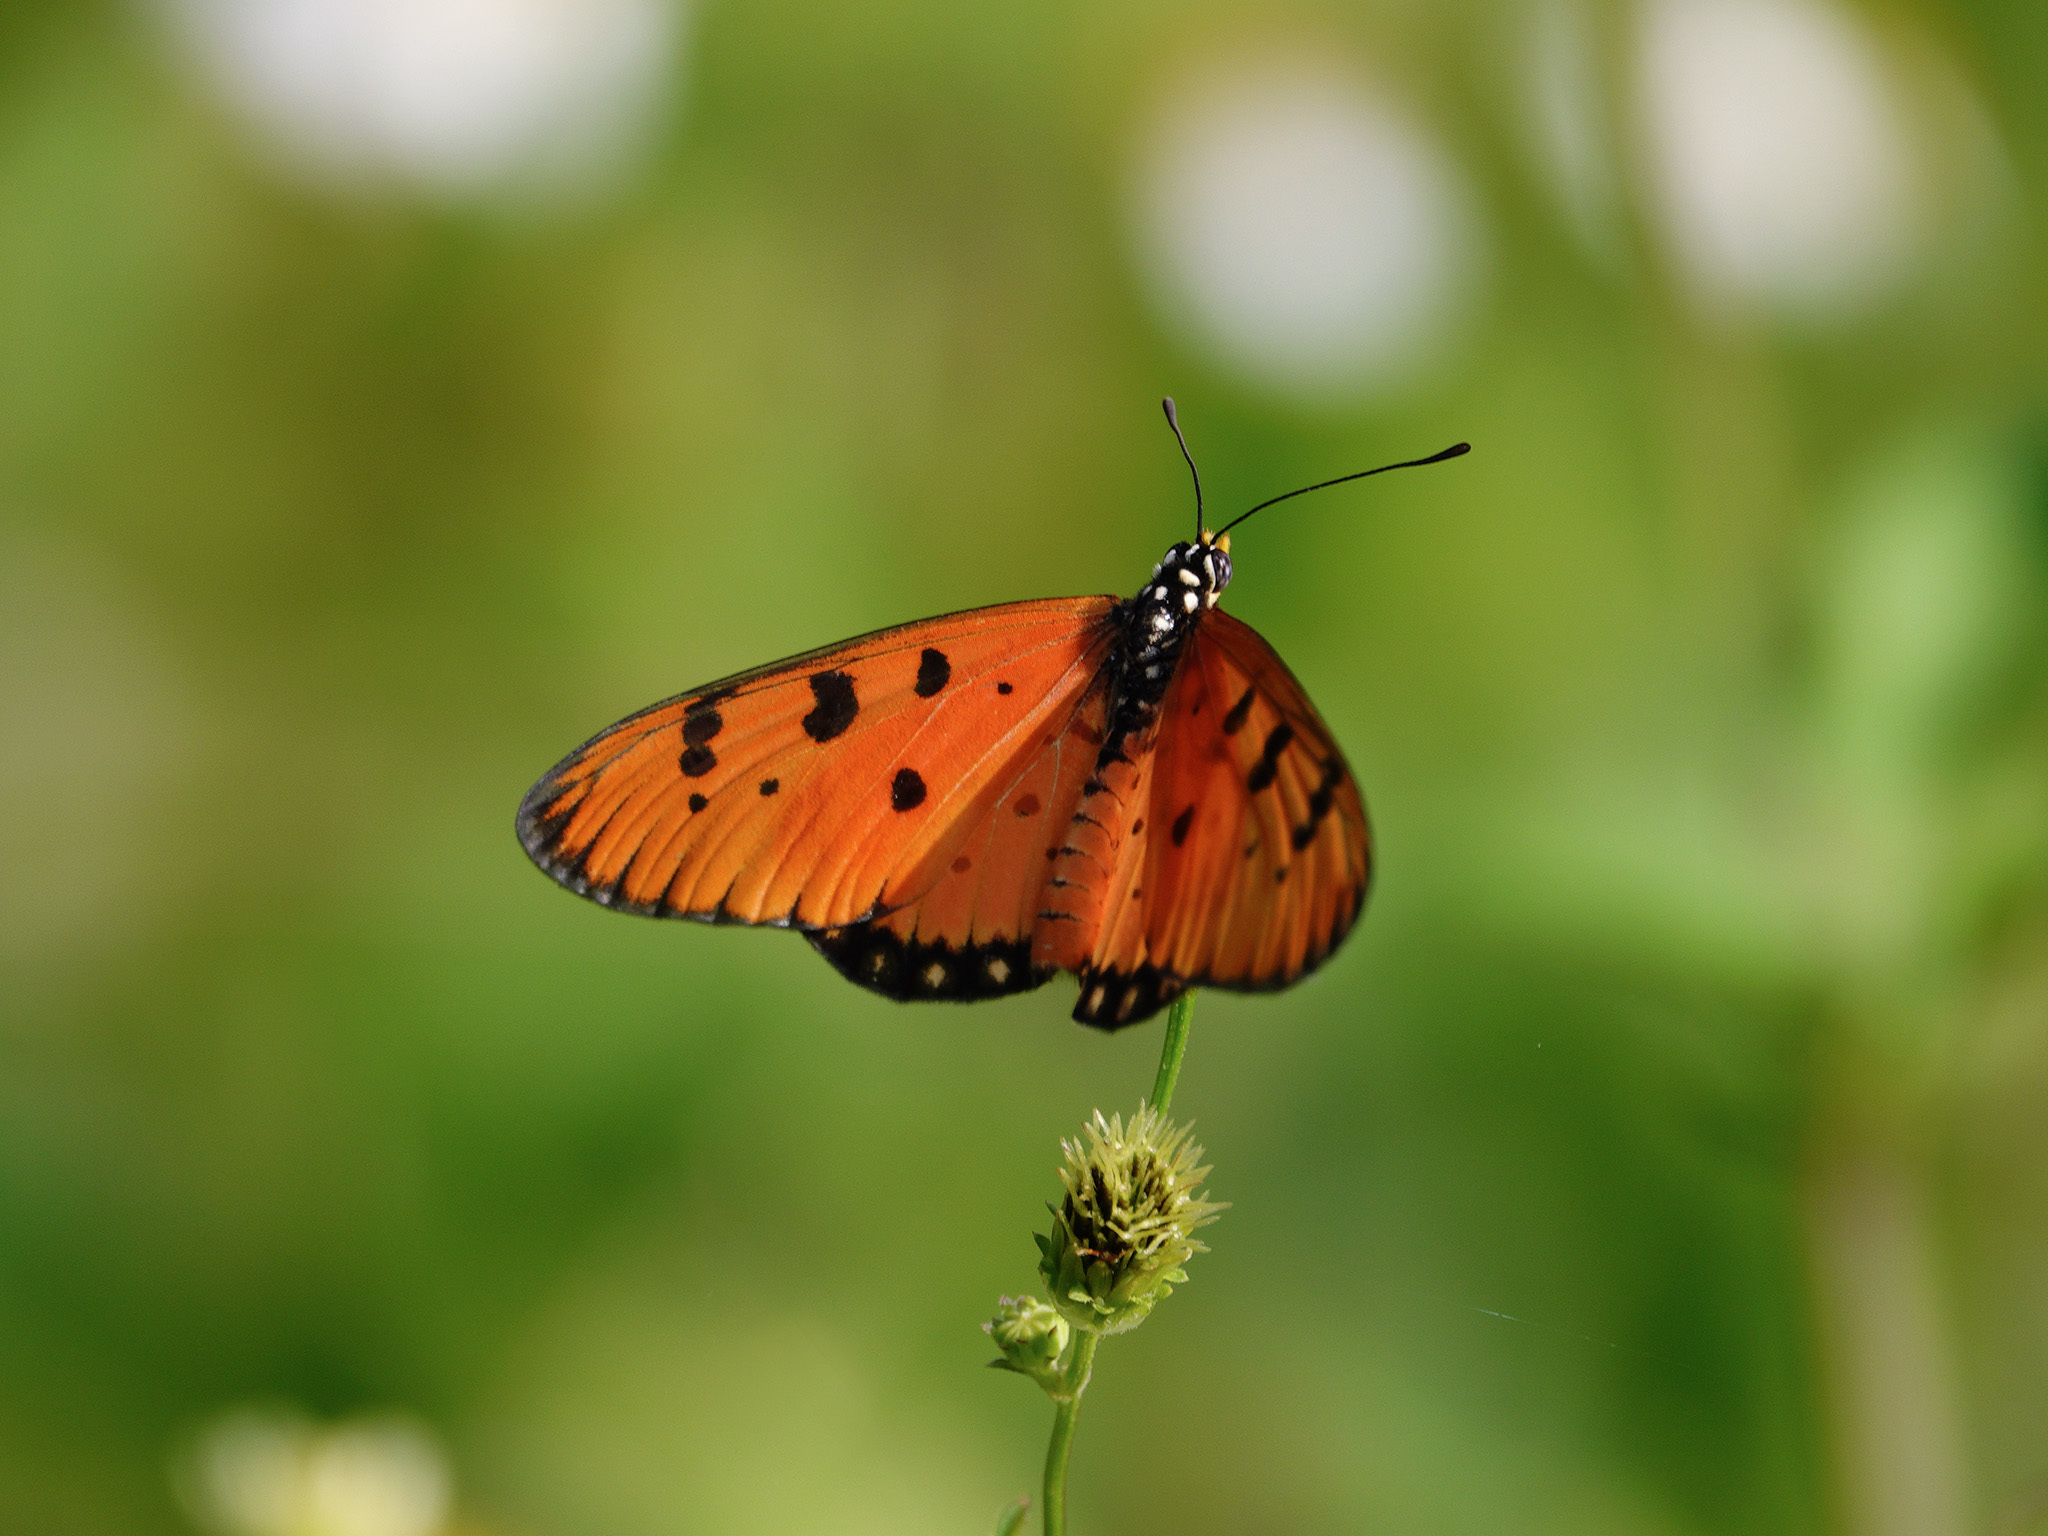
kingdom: Animalia
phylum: Arthropoda
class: Insecta
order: Lepidoptera
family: Nymphalidae
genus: Acraea
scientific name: Acraea terpsicore
